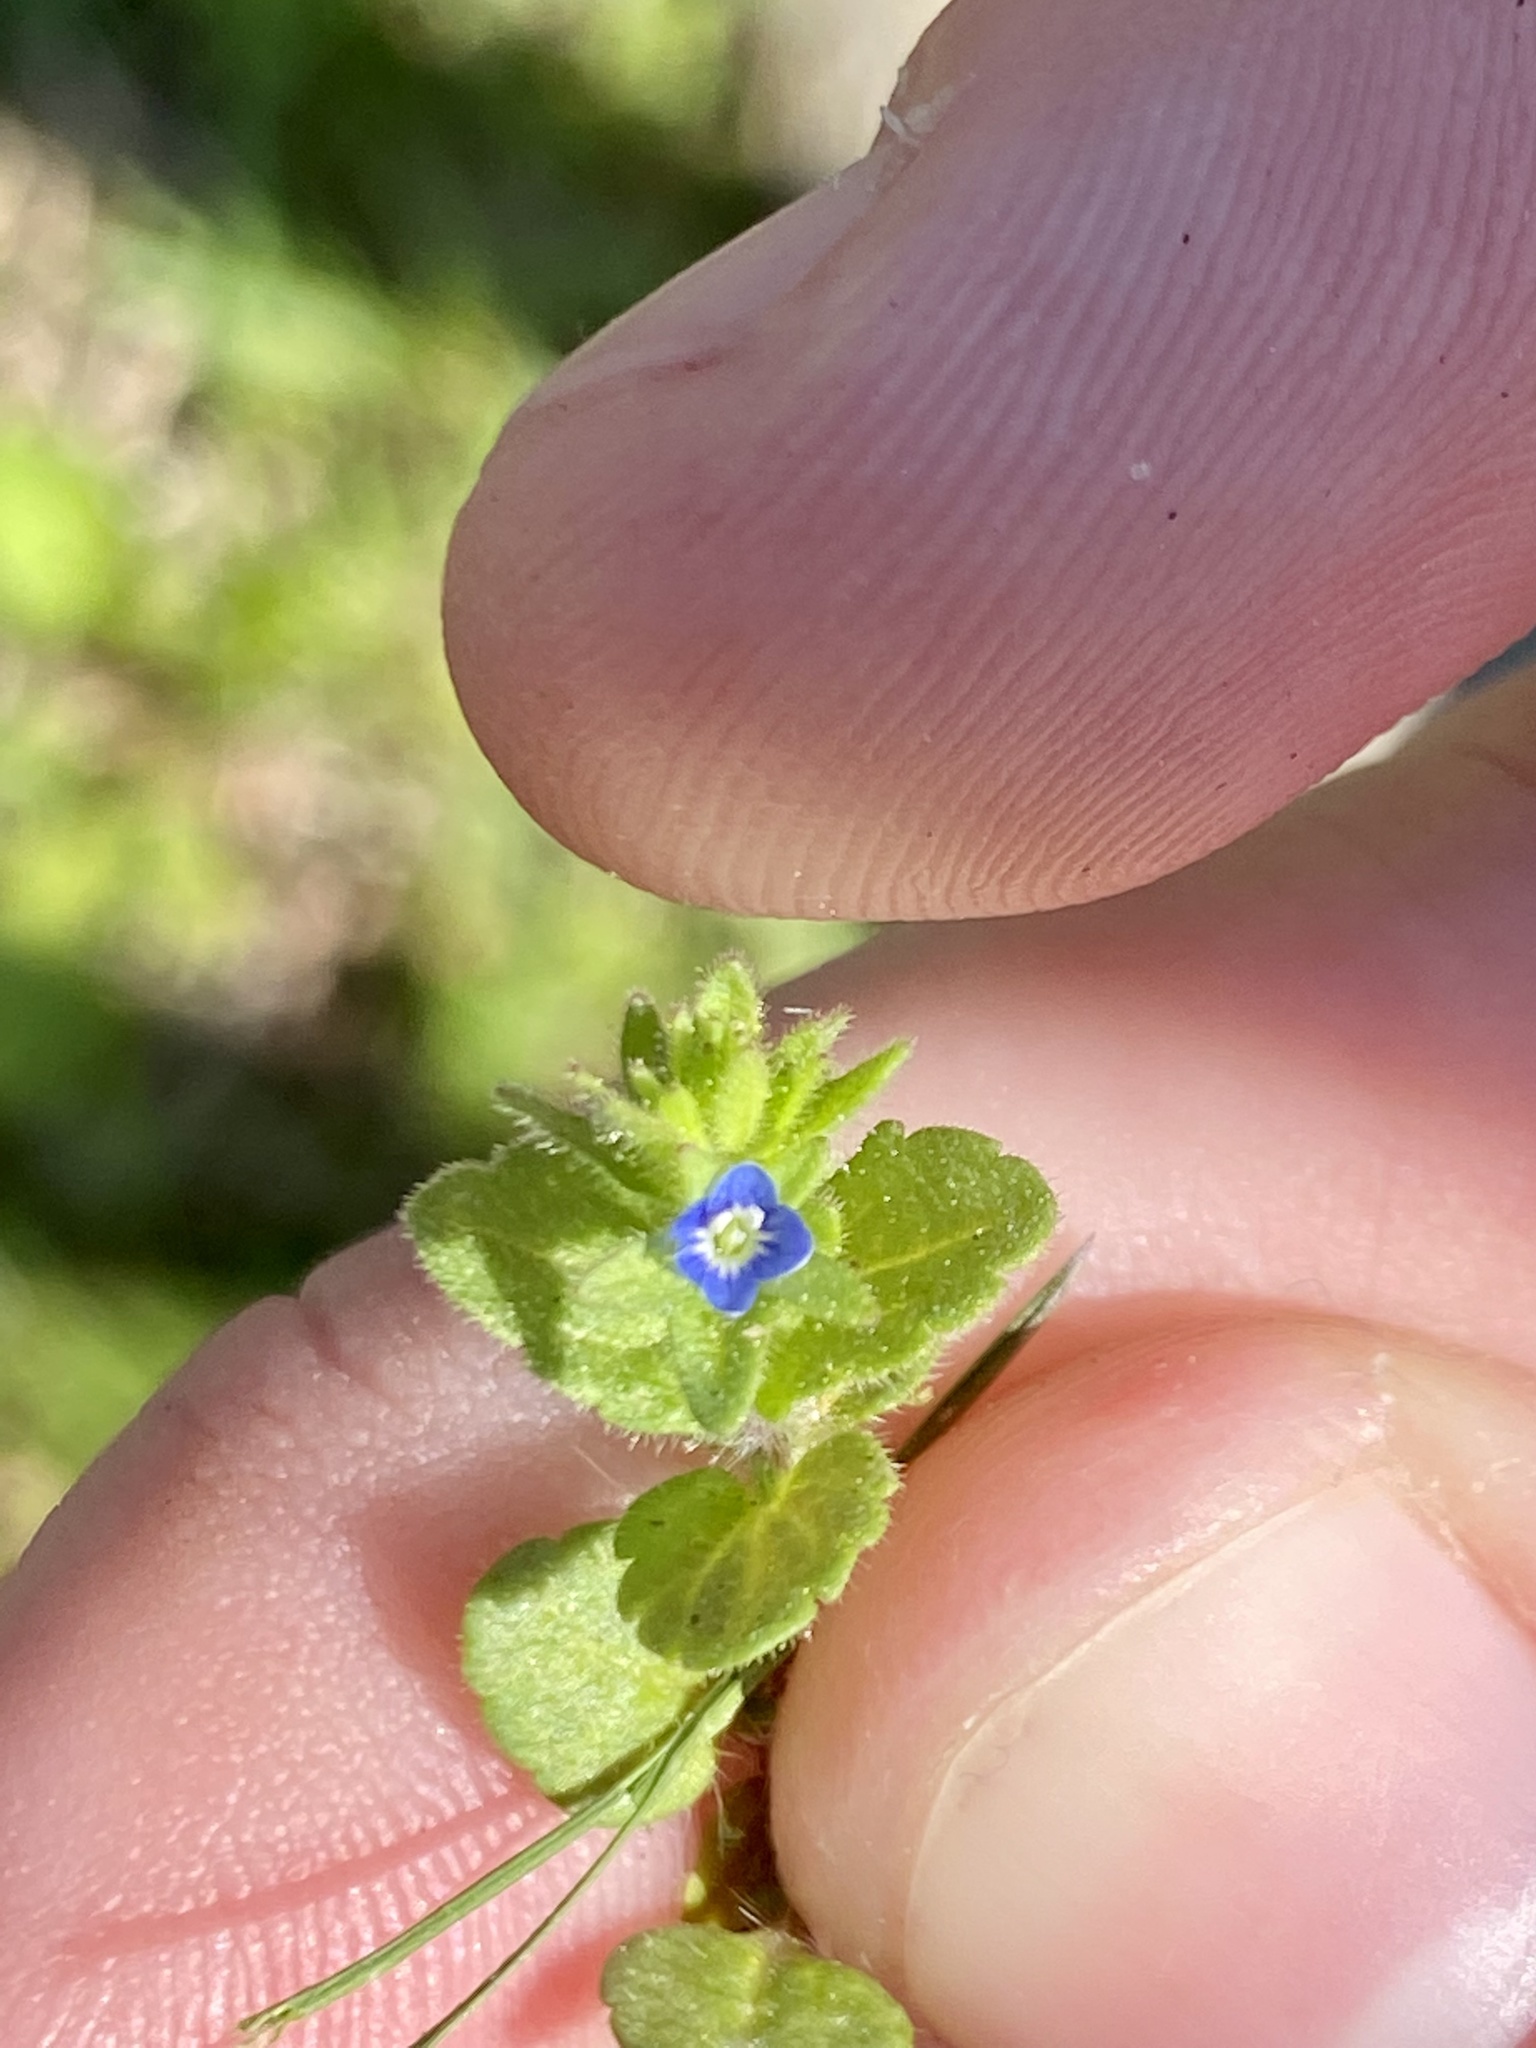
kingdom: Plantae
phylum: Tracheophyta
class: Magnoliopsida
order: Lamiales
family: Plantaginaceae
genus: Veronica
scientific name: Veronica arvensis
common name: Corn speedwell
